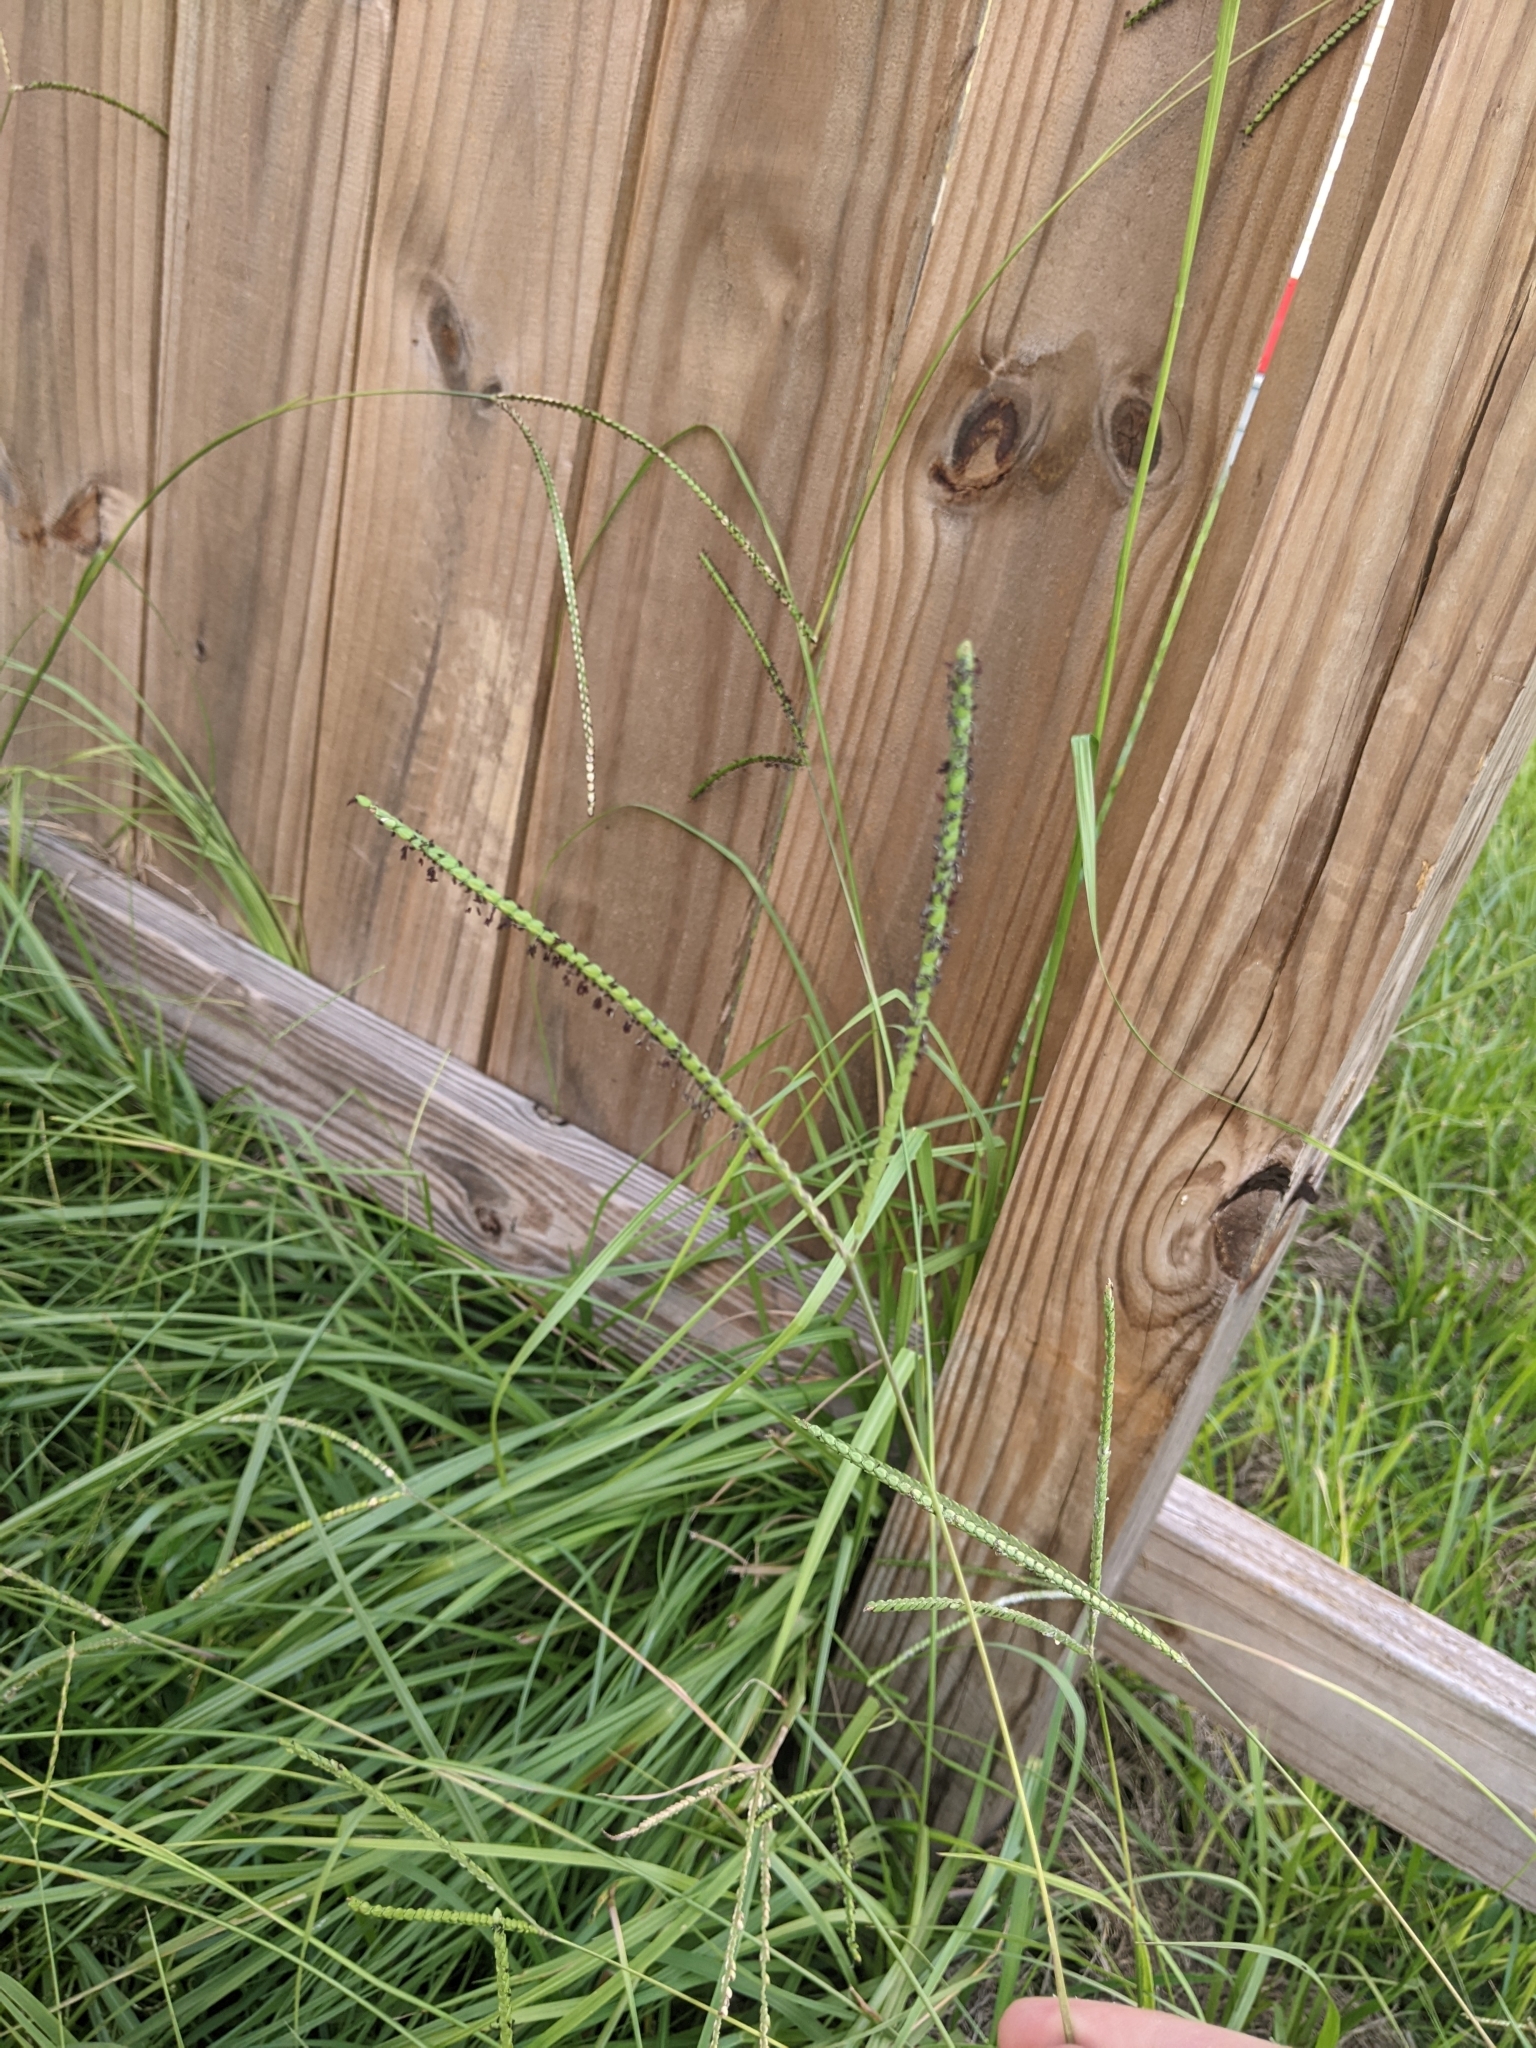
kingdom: Plantae
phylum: Tracheophyta
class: Liliopsida
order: Poales
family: Poaceae
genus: Paspalum
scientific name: Paspalum notatum
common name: Bahiagrass
